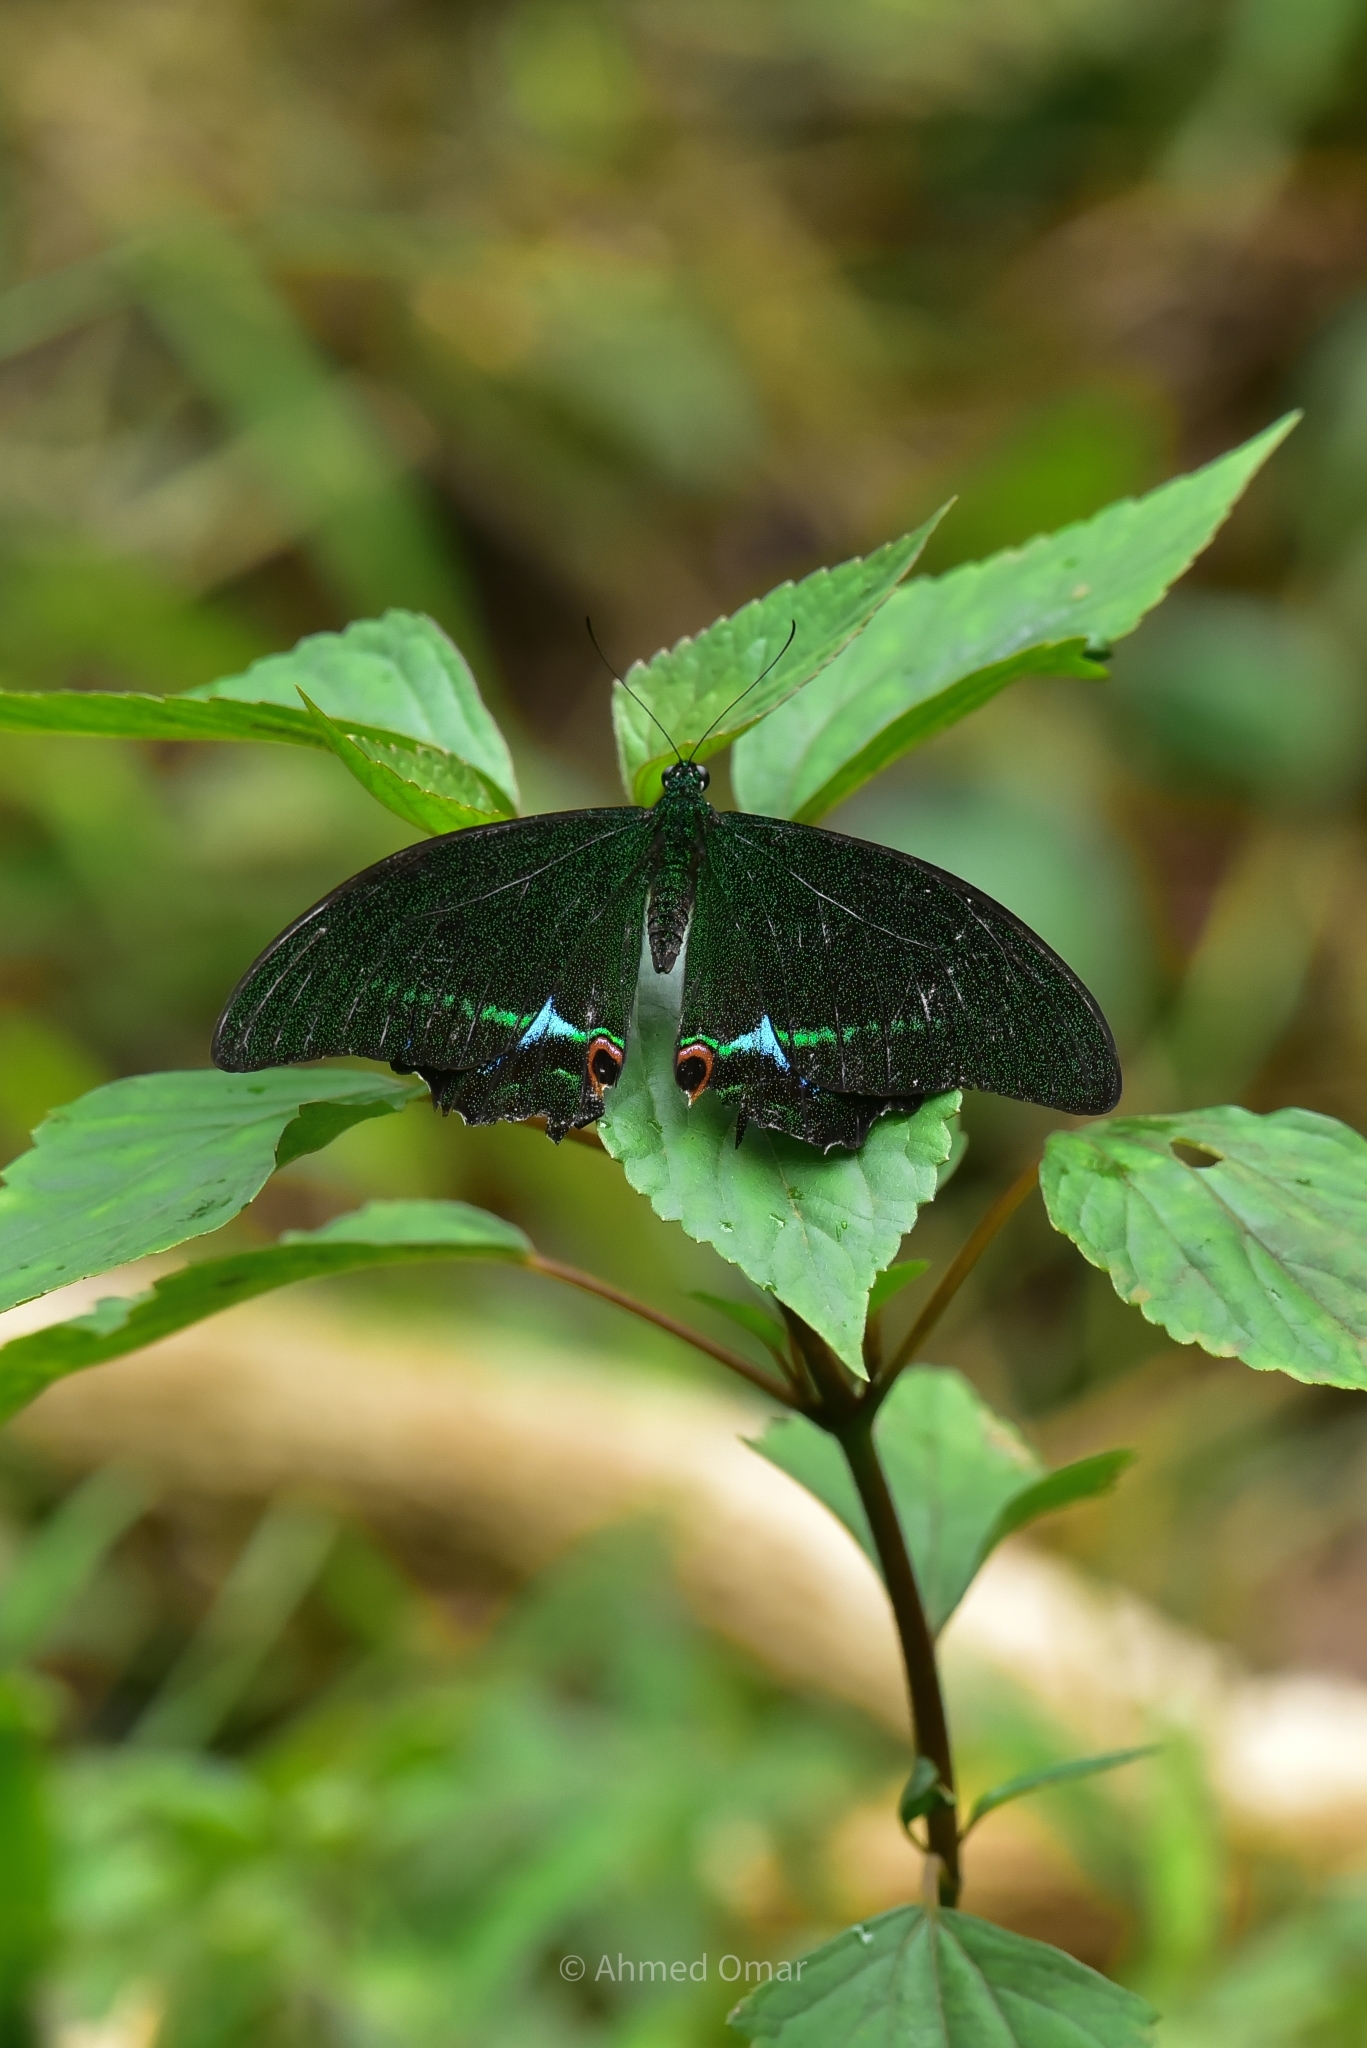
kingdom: Animalia
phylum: Arthropoda
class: Insecta
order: Lepidoptera
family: Papilionidae
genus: Papilio
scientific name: Papilio paris
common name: Paris peacock
